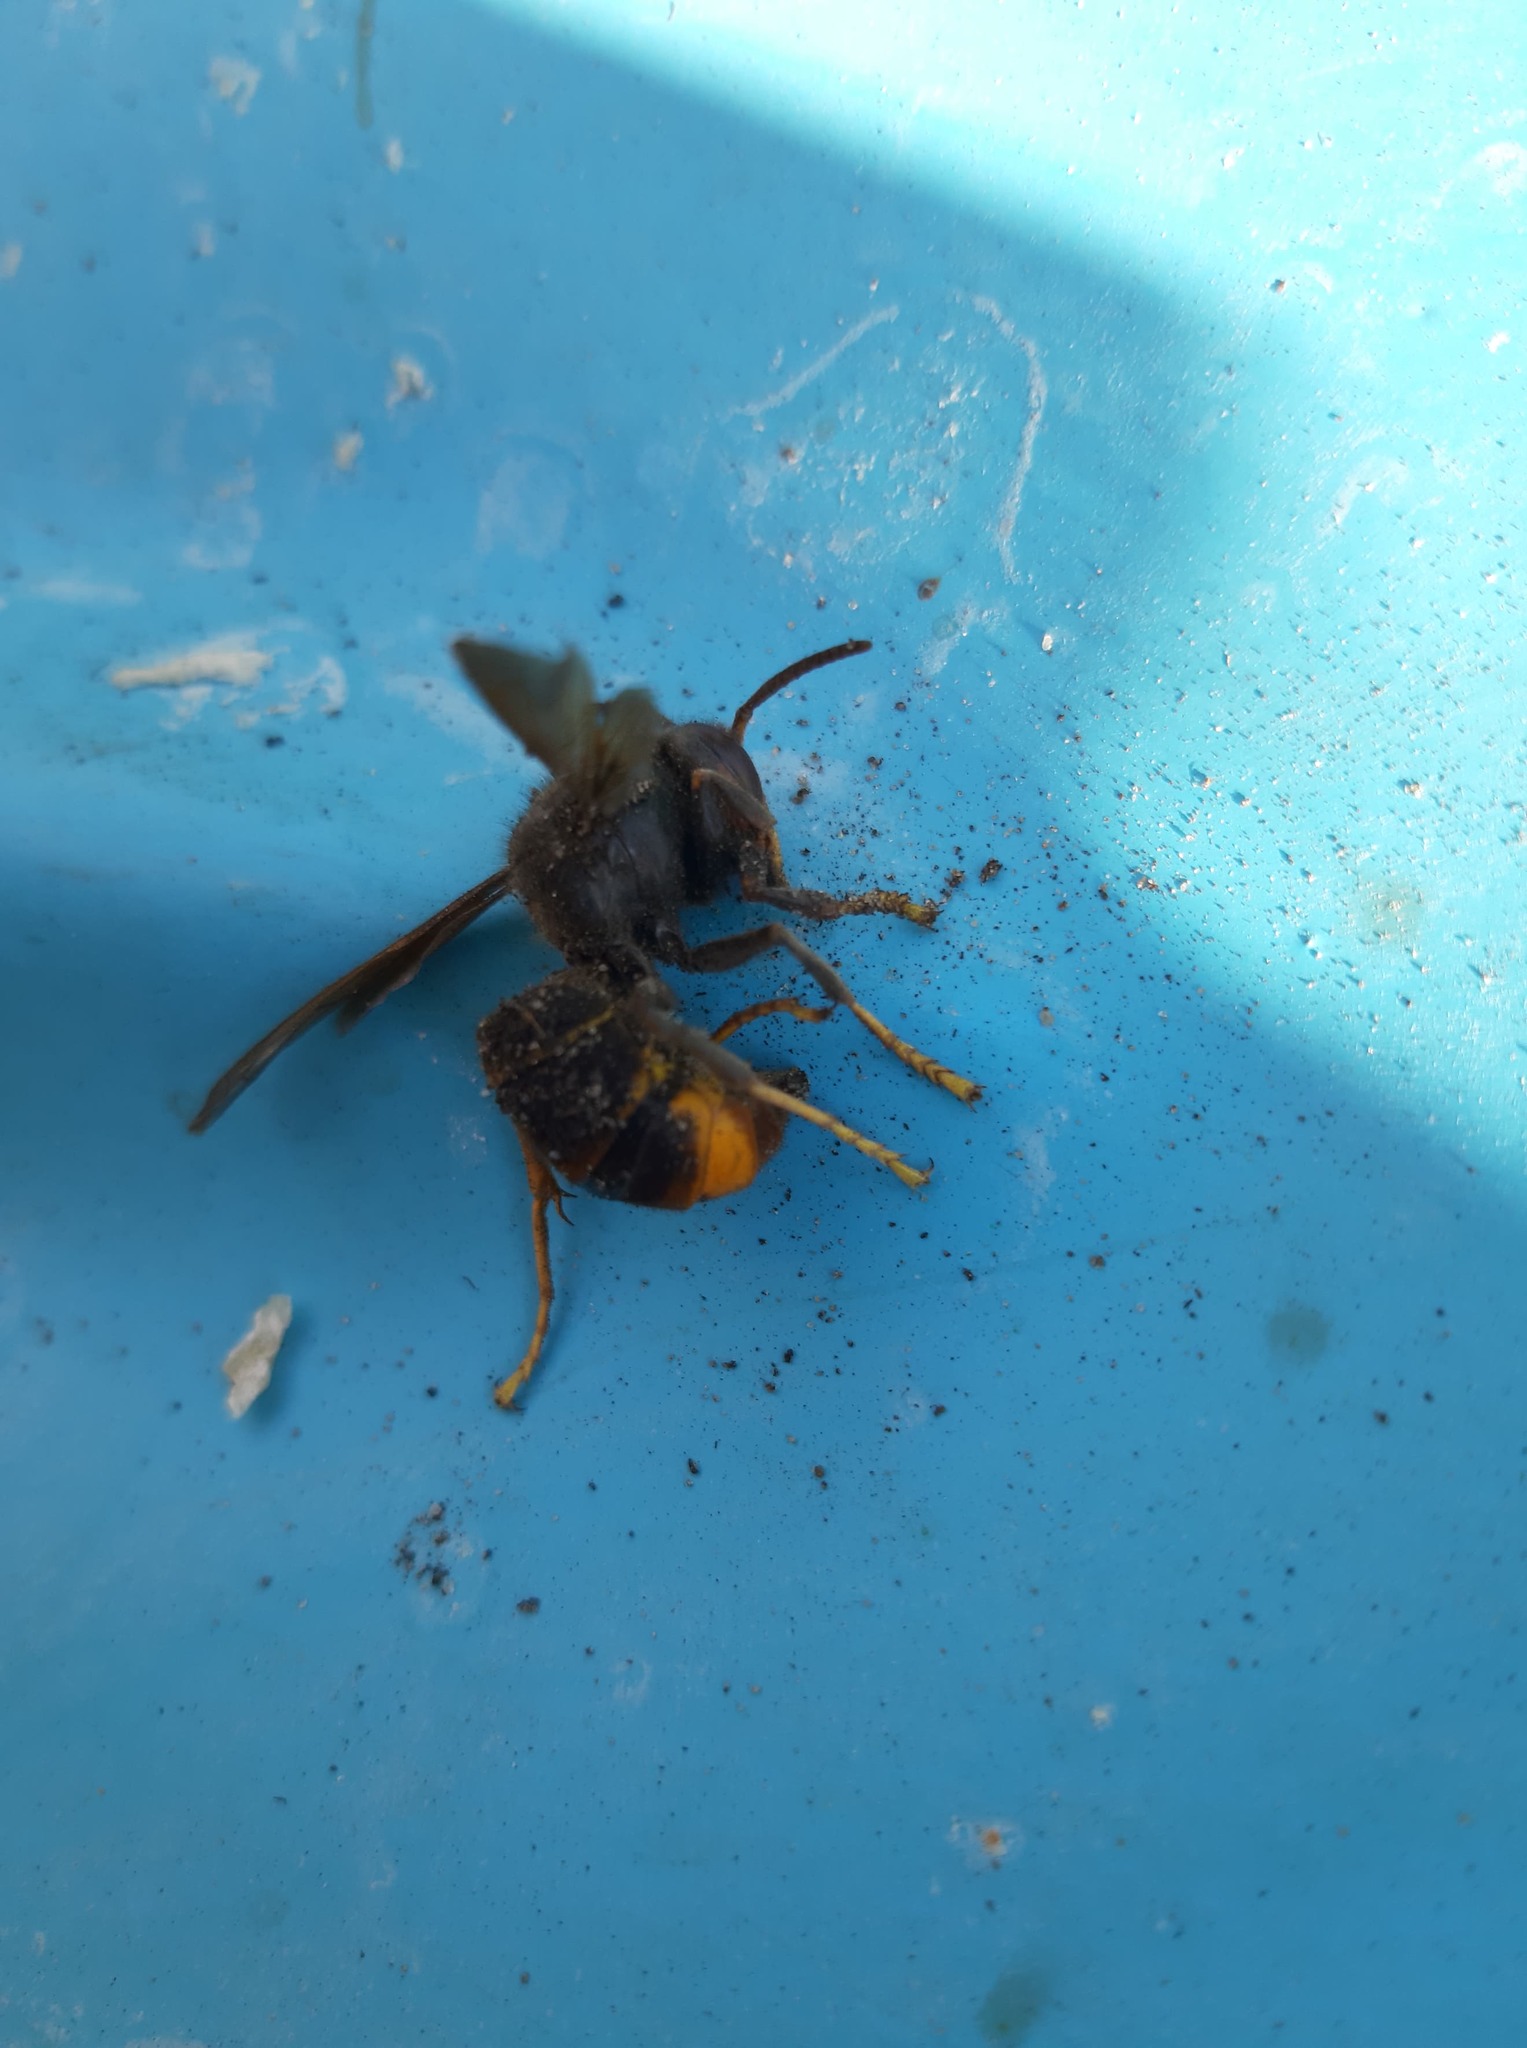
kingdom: Animalia
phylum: Arthropoda
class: Insecta
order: Hymenoptera
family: Vespidae
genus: Vespa
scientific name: Vespa velutina
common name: Asian hornet
